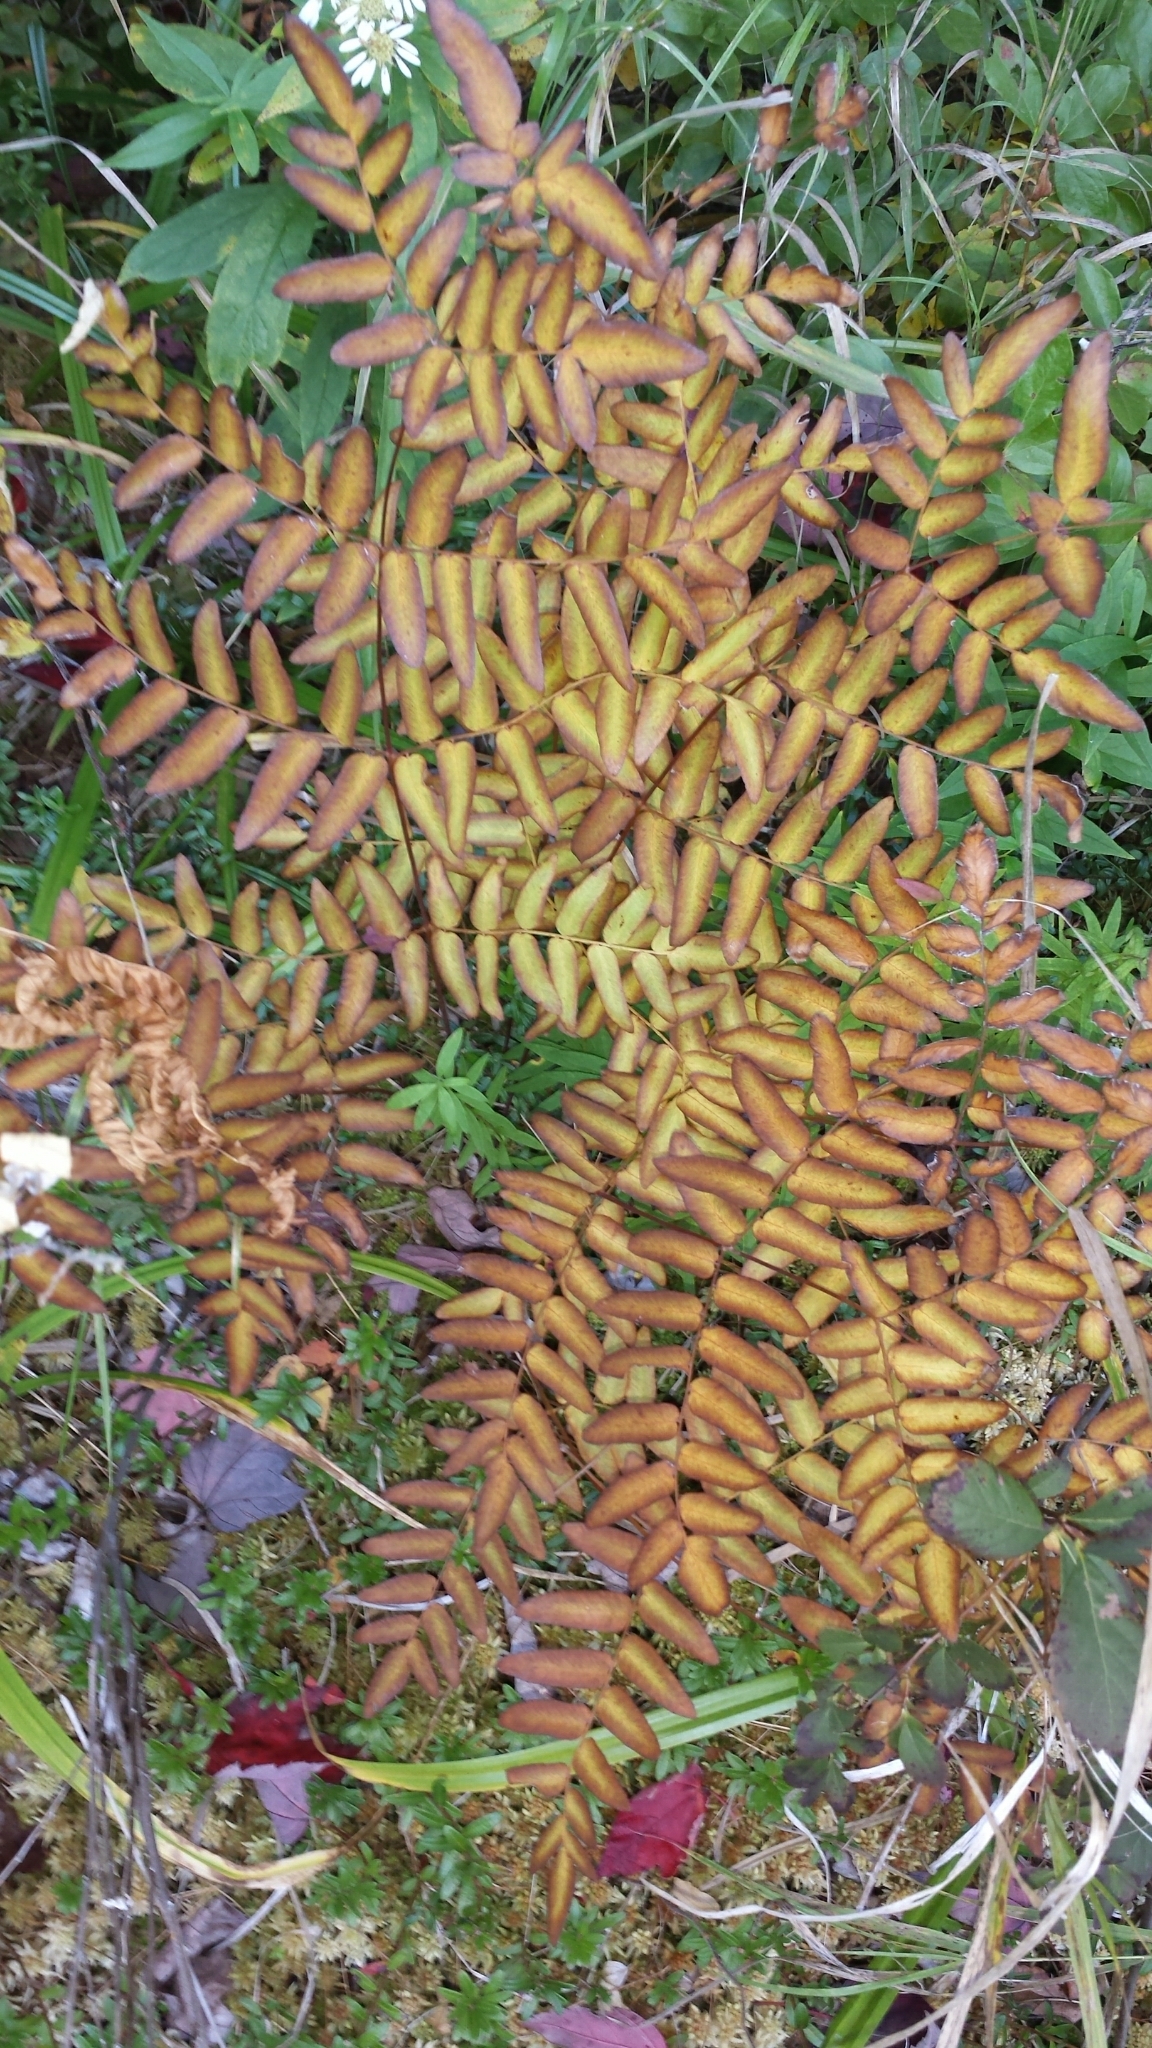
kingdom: Plantae
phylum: Tracheophyta
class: Polypodiopsida
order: Osmundales
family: Osmundaceae
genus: Osmunda
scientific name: Osmunda spectabilis
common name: American royal fern
